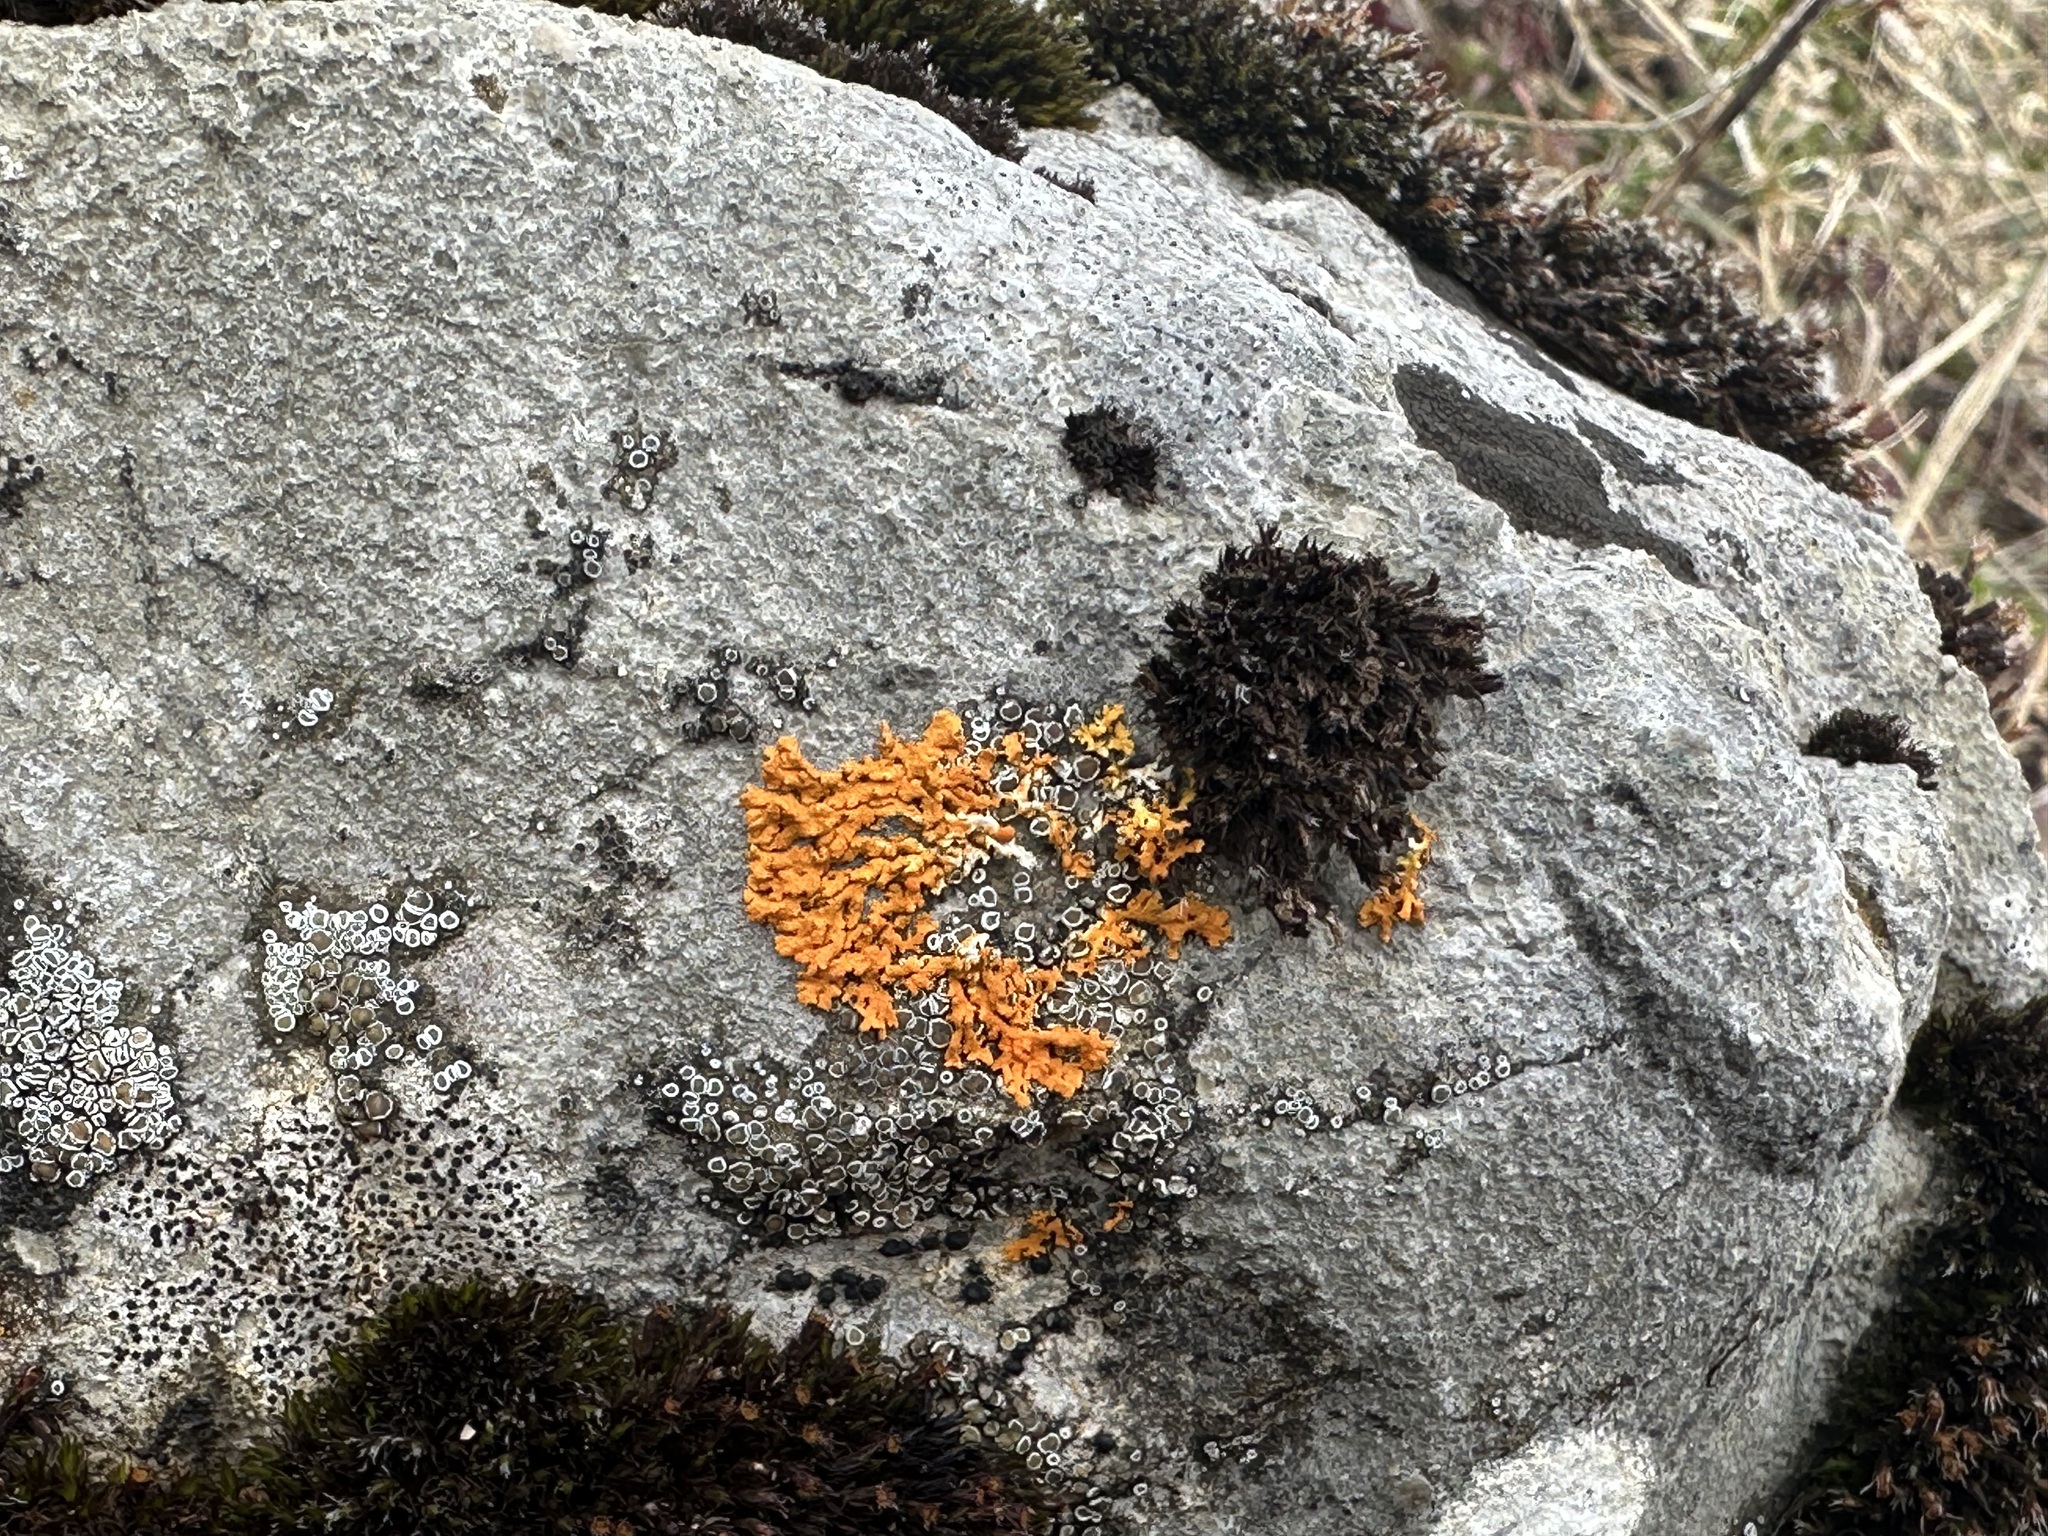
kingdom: Fungi
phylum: Ascomycota
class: Lecanoromycetes
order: Teloschistales
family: Teloschistaceae
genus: Xanthoria
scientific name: Xanthoria elegans
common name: Elegant sunburst lichen
